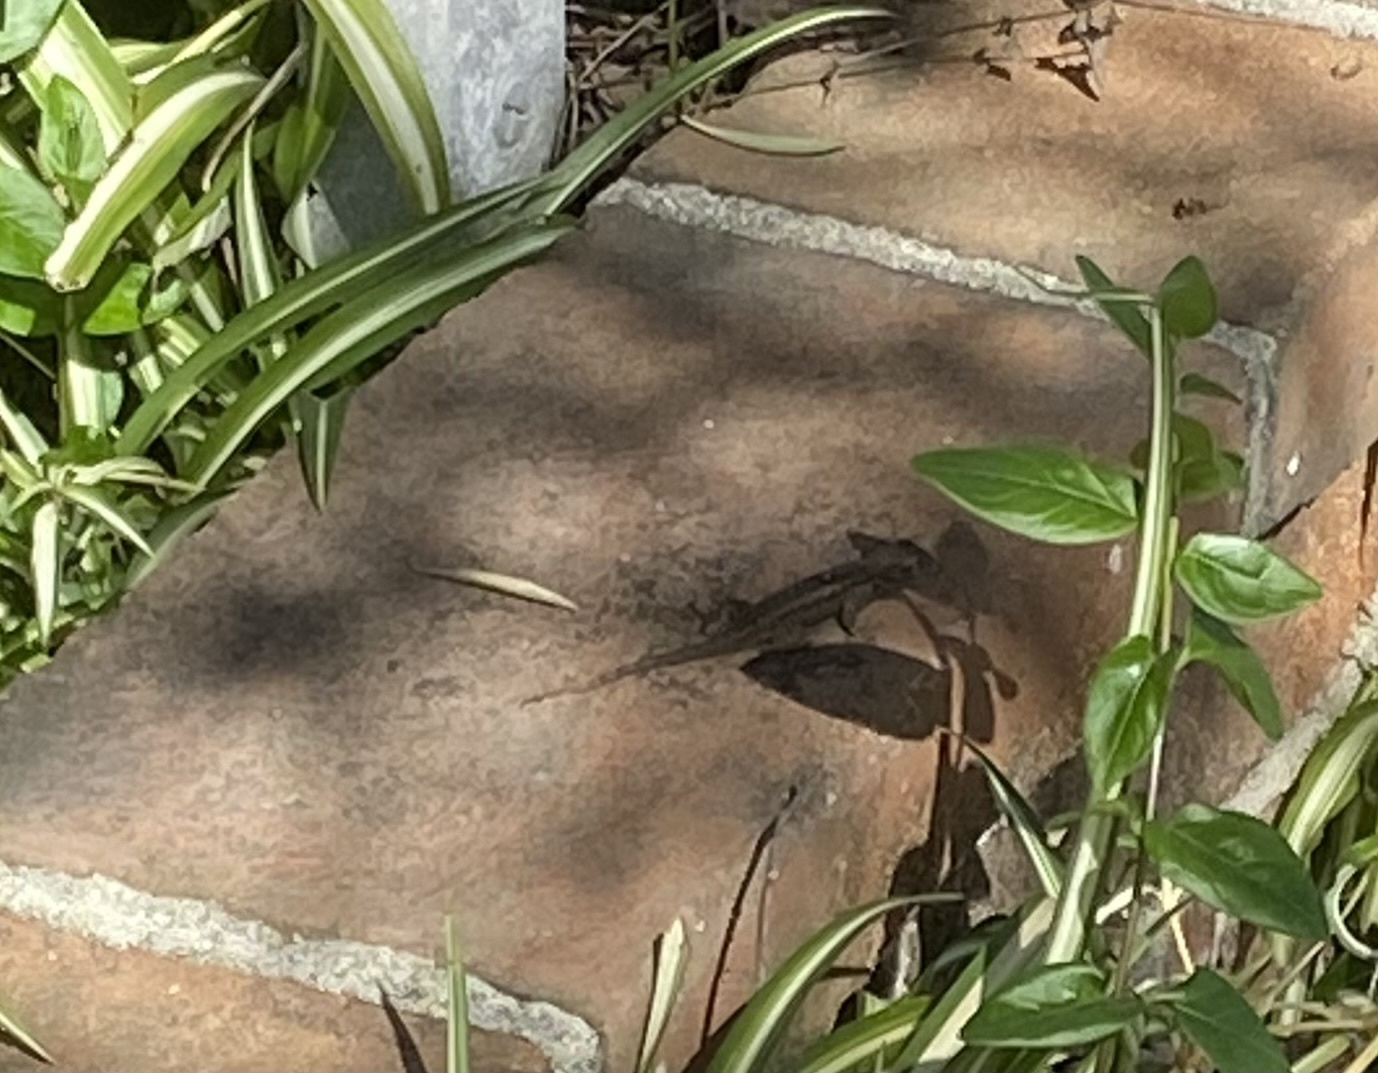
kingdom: Animalia
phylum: Chordata
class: Squamata
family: Phrynosomatidae
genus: Sceloporus
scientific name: Sceloporus occidentalis
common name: Western fence lizard
